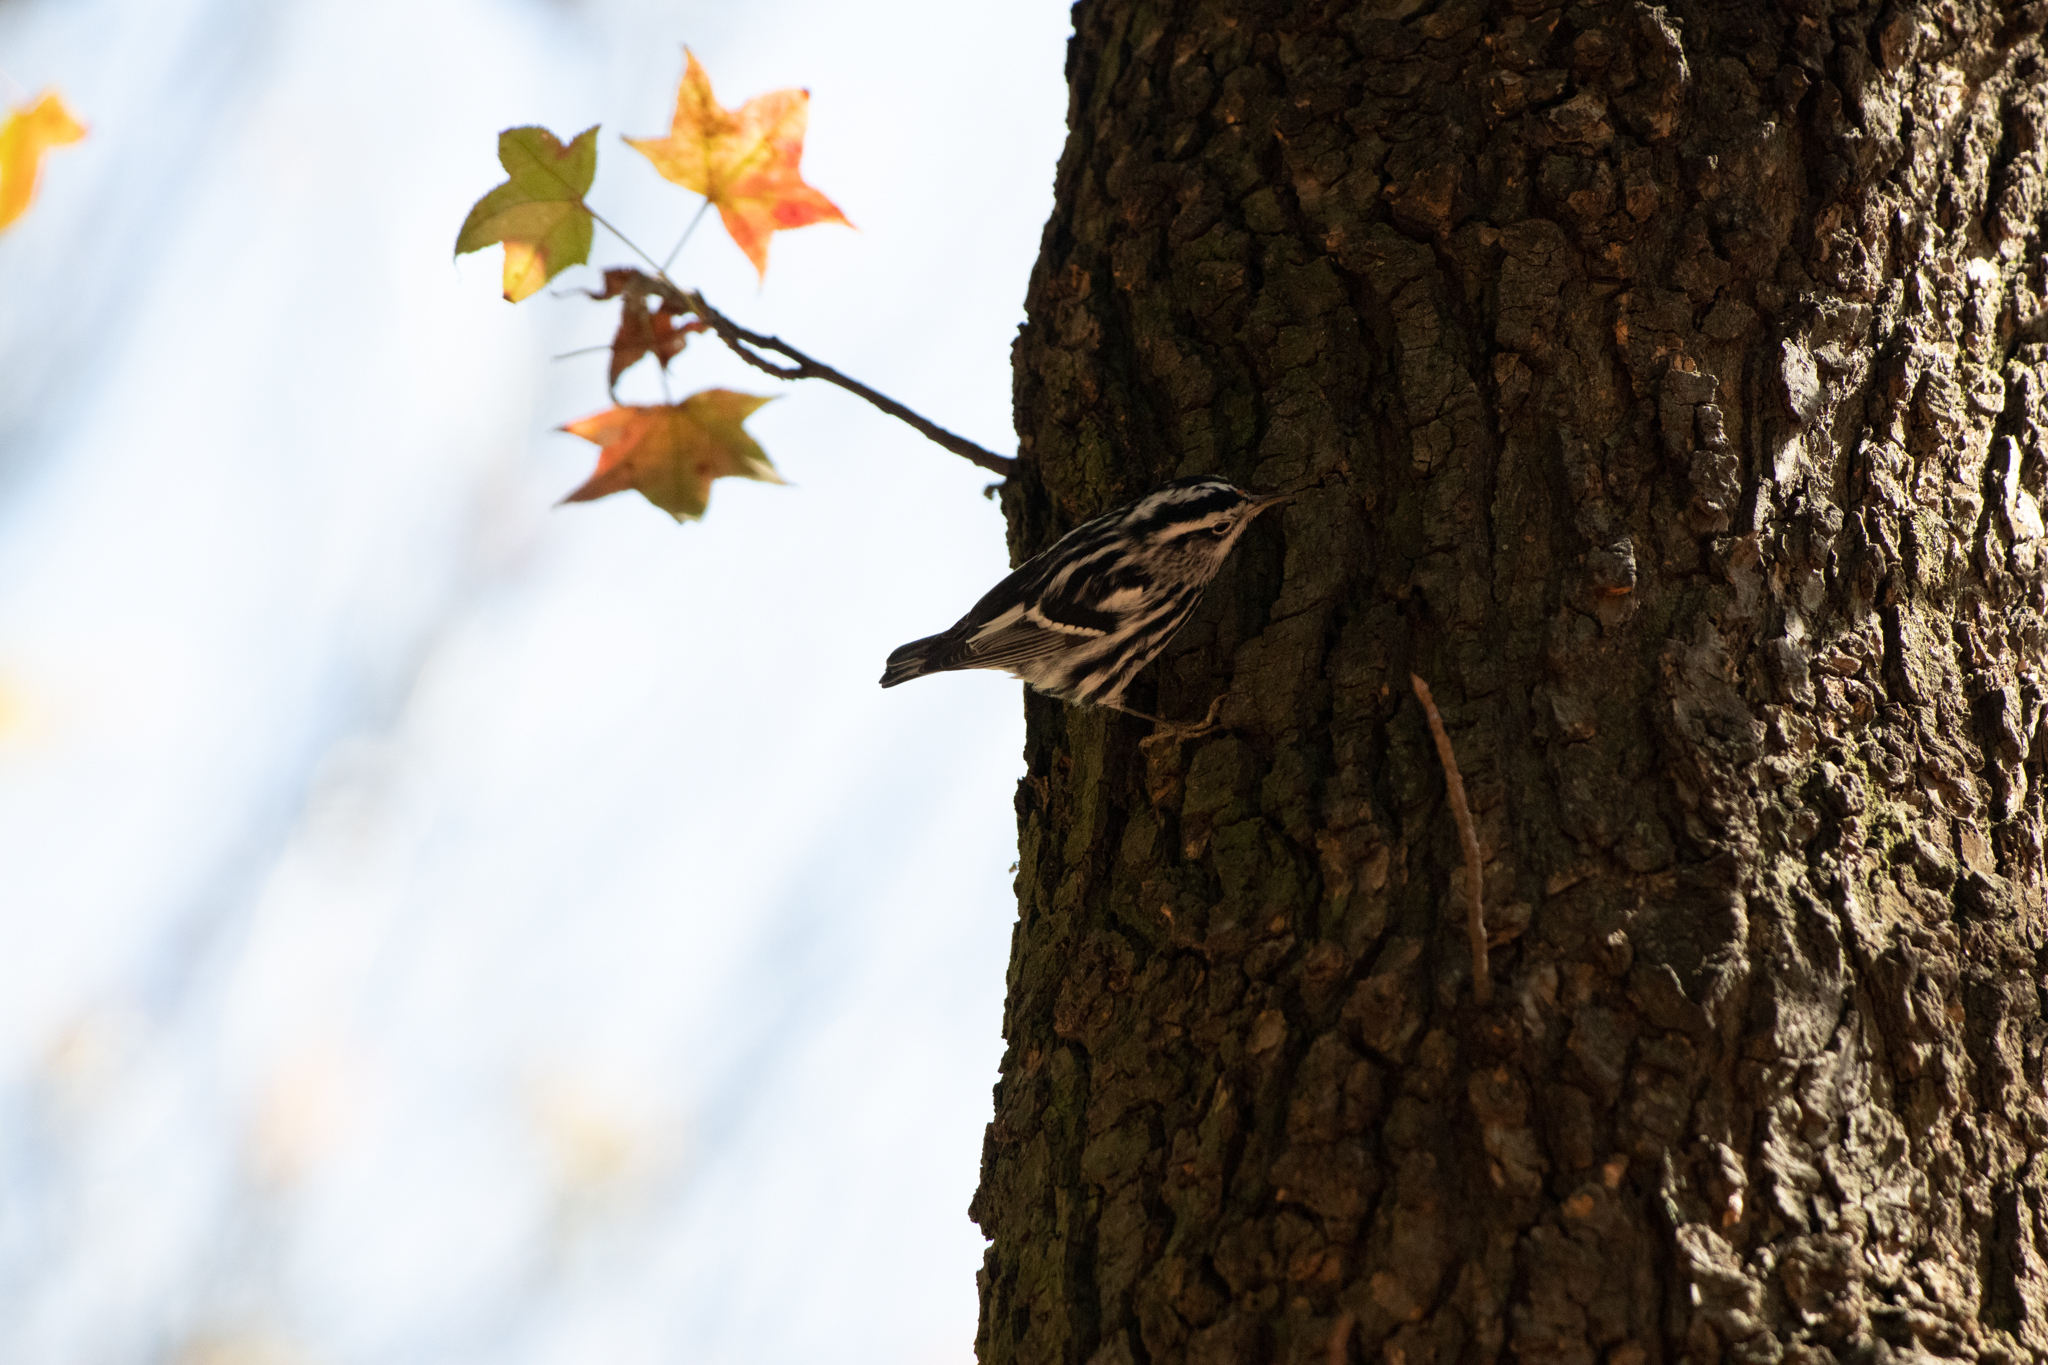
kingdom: Animalia
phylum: Chordata
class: Aves
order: Passeriformes
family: Parulidae
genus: Mniotilta
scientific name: Mniotilta varia
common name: Black-and-white warbler
